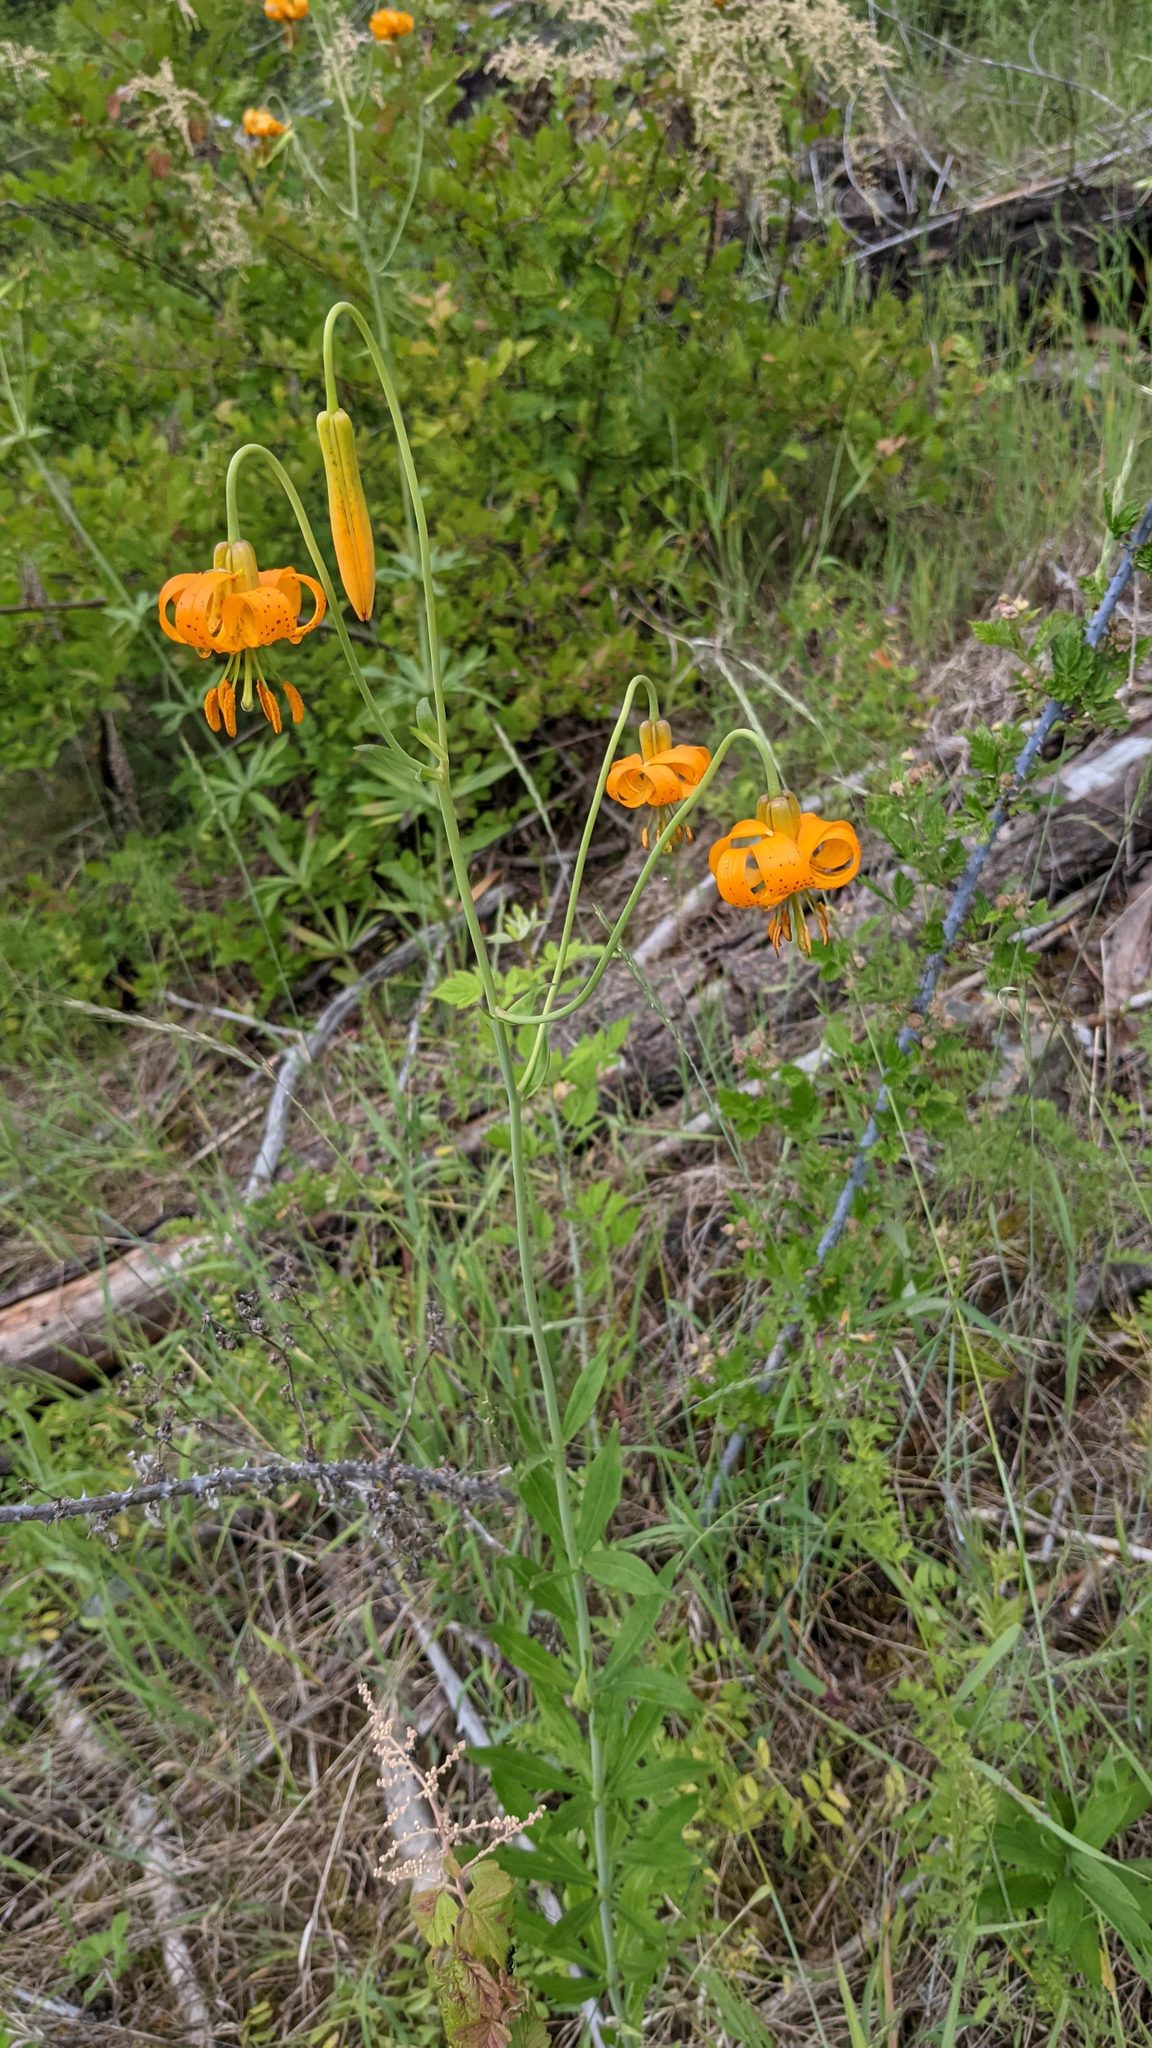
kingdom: Plantae
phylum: Tracheophyta
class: Liliopsida
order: Liliales
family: Liliaceae
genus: Lilium
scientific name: Lilium columbianum
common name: Columbia lily
